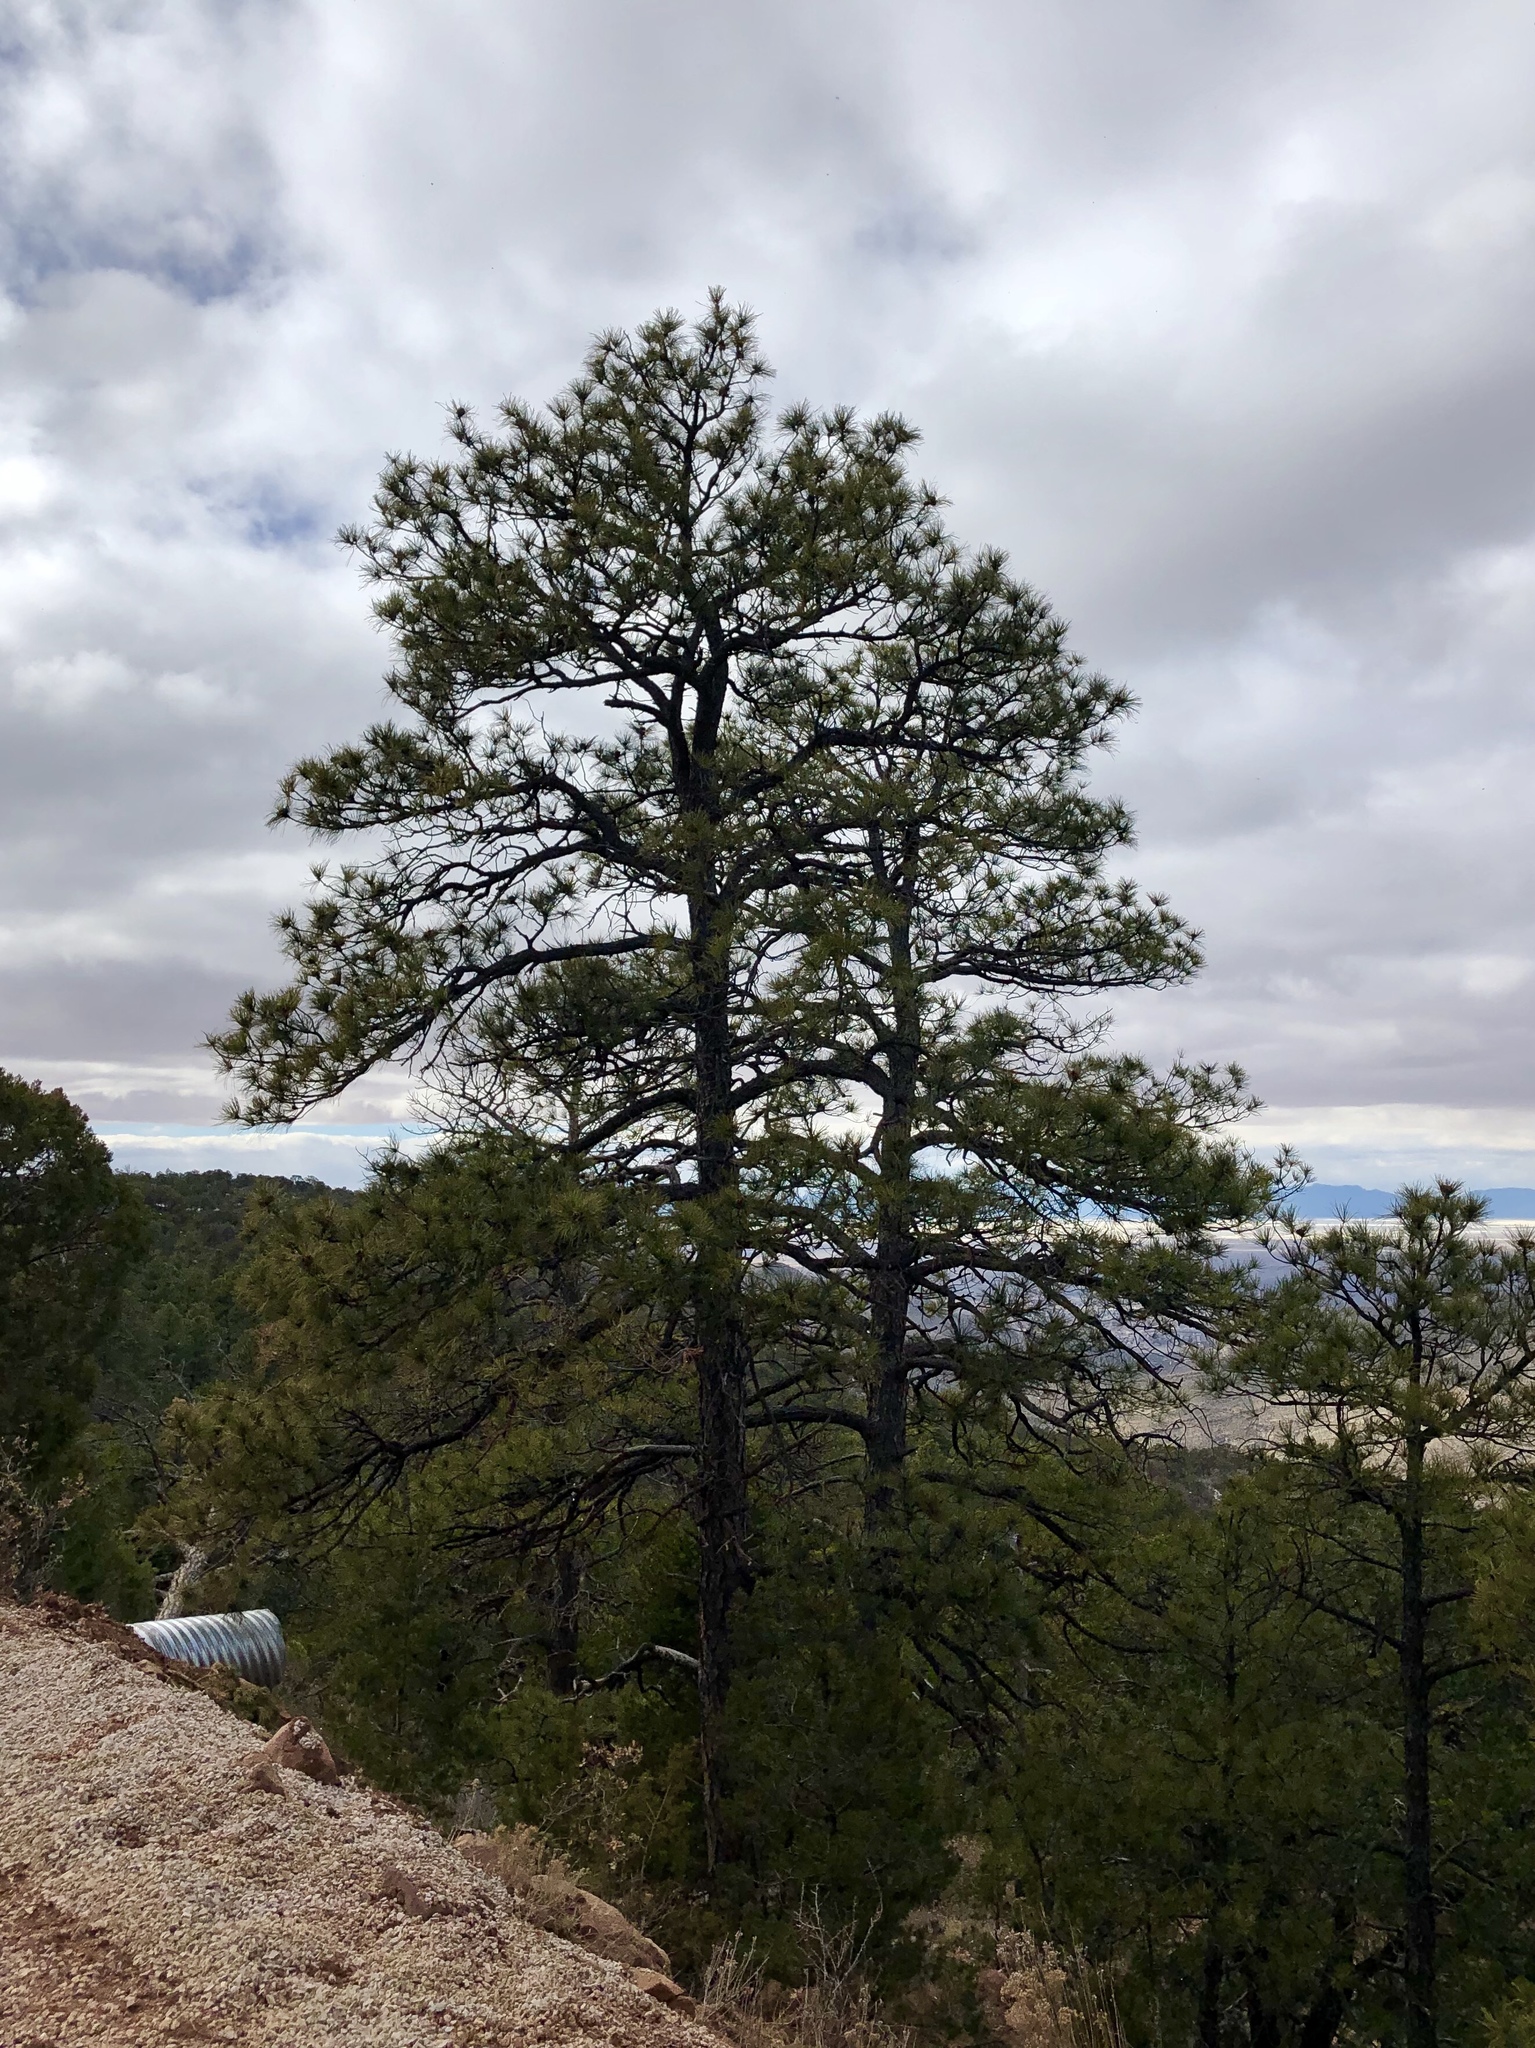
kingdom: Plantae
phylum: Tracheophyta
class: Pinopsida
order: Pinales
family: Pinaceae
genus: Pinus
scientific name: Pinus ponderosa
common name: Western yellow-pine
